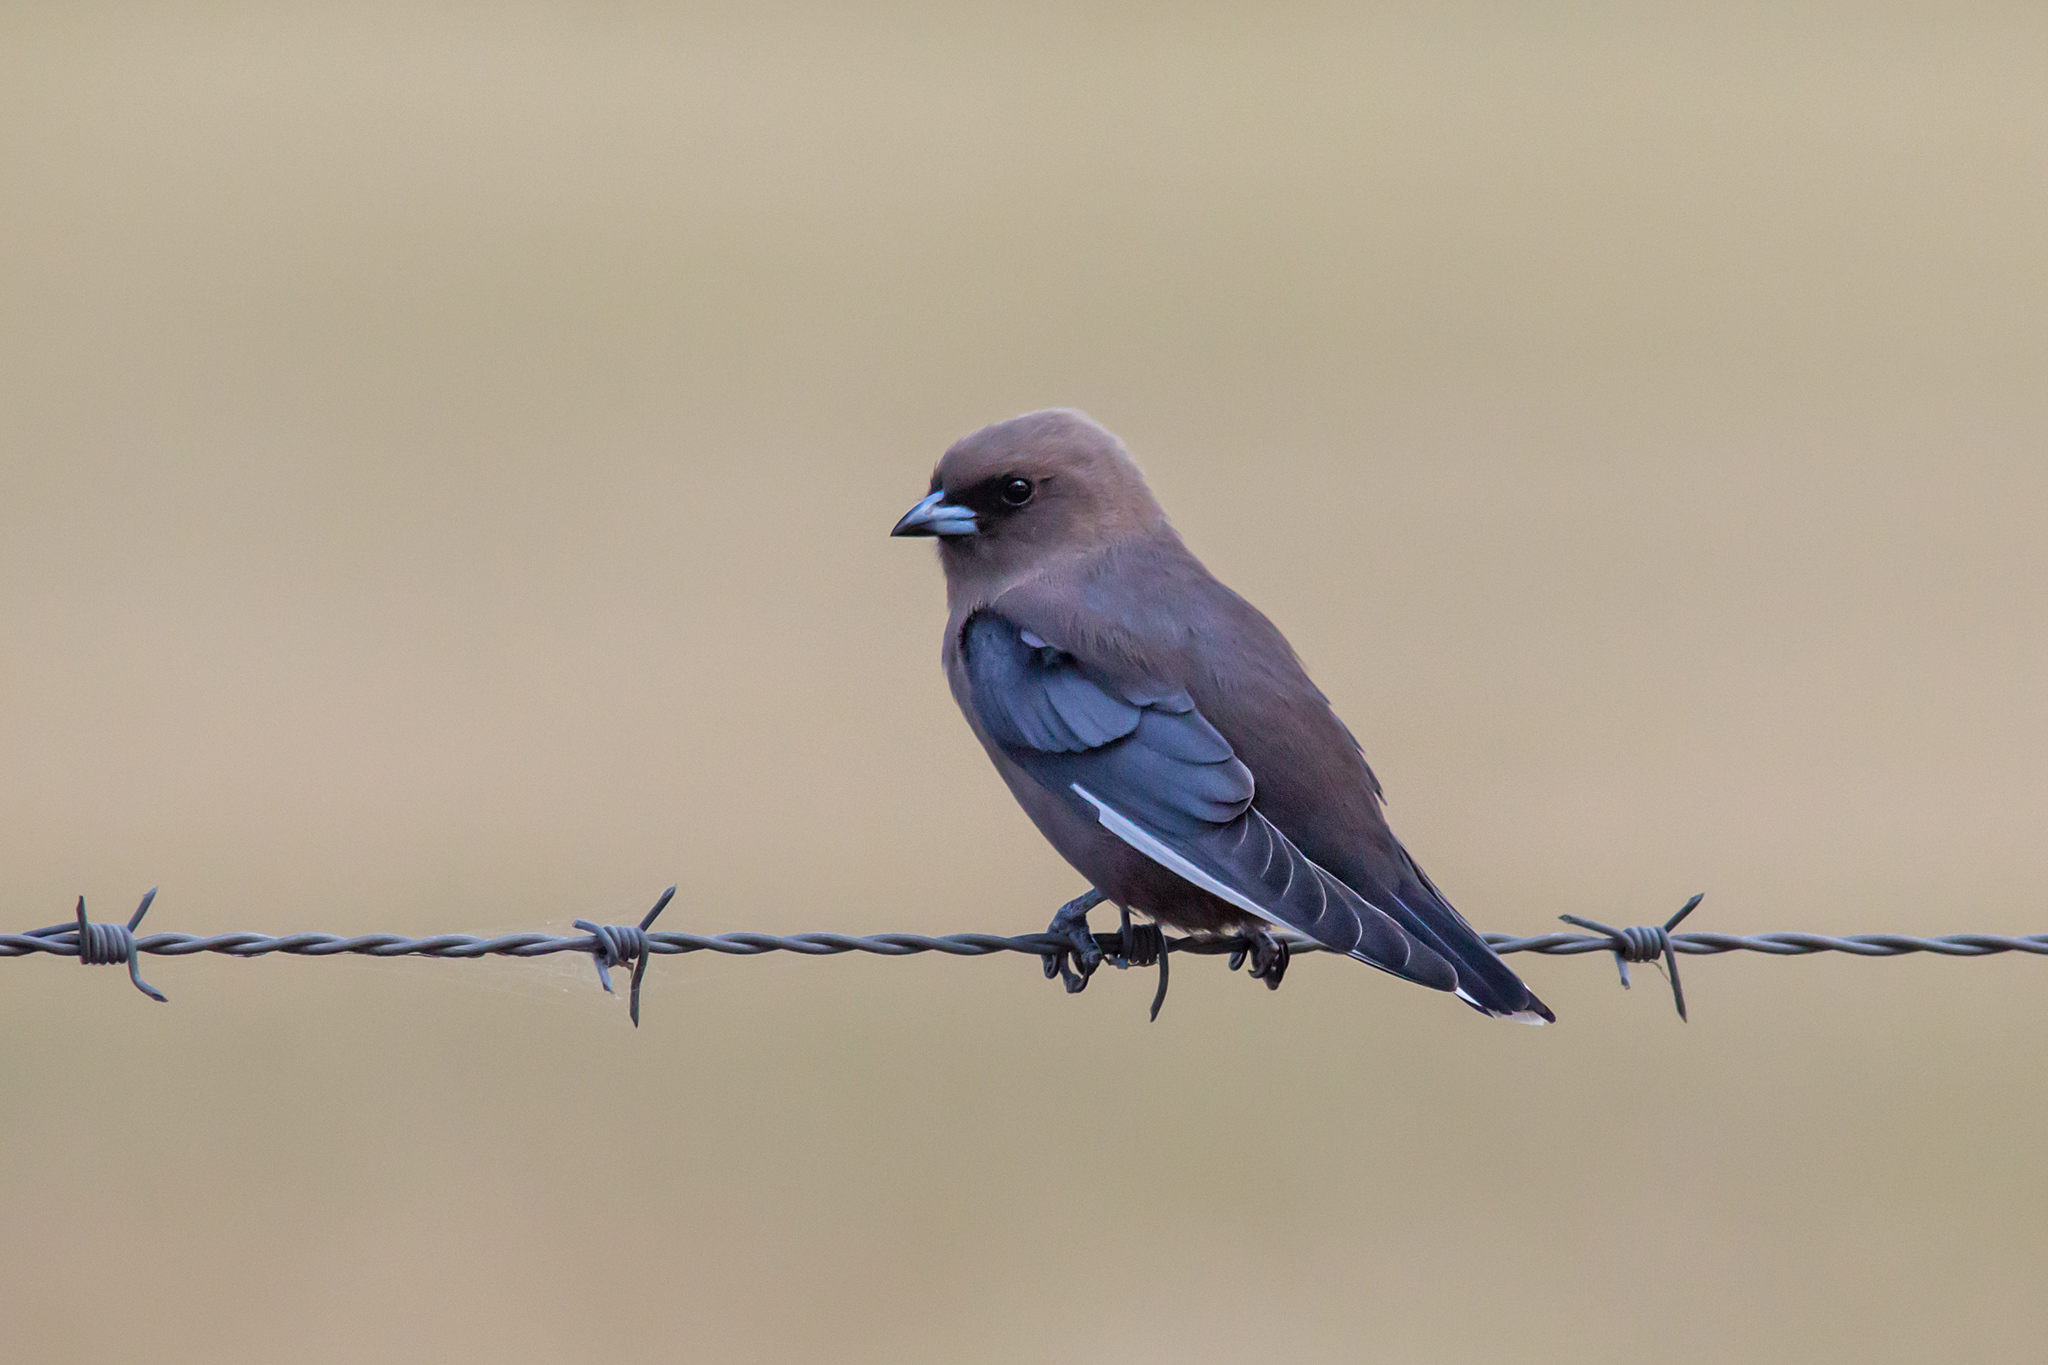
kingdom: Animalia
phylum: Chordata
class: Aves
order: Passeriformes
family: Artamidae
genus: Artamus
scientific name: Artamus cyanopterus
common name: Dusky woodswallow
